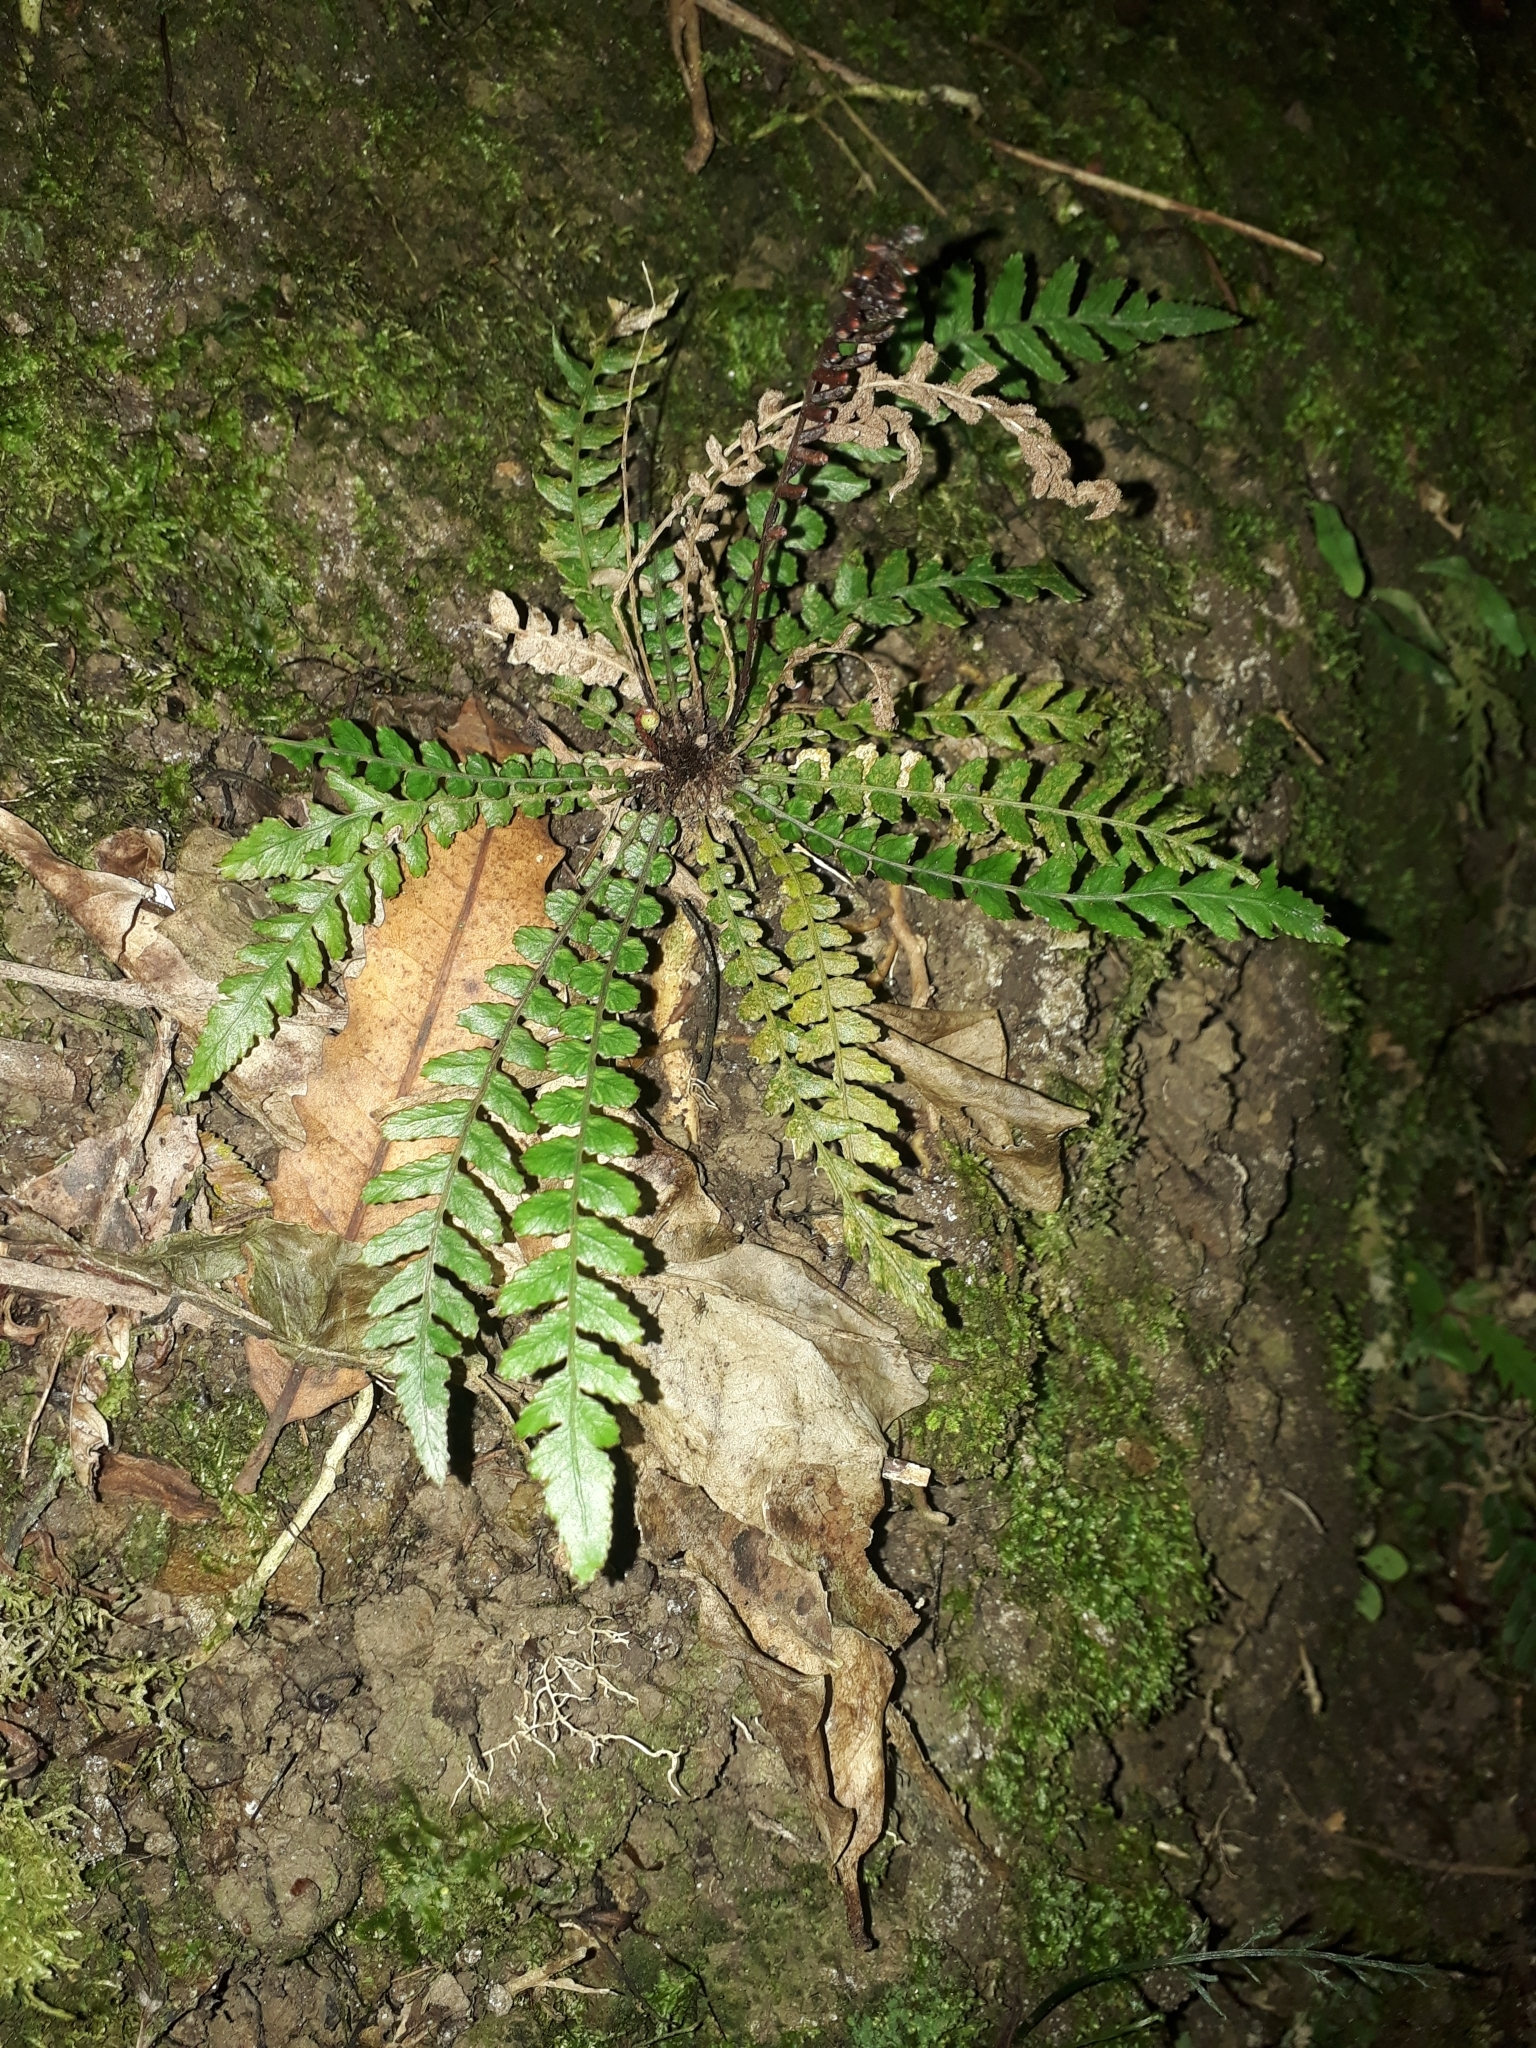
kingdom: Plantae
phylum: Tracheophyta
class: Polypodiopsida
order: Polypodiales
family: Blechnaceae
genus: Austroblechnum
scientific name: Austroblechnum membranaceum
